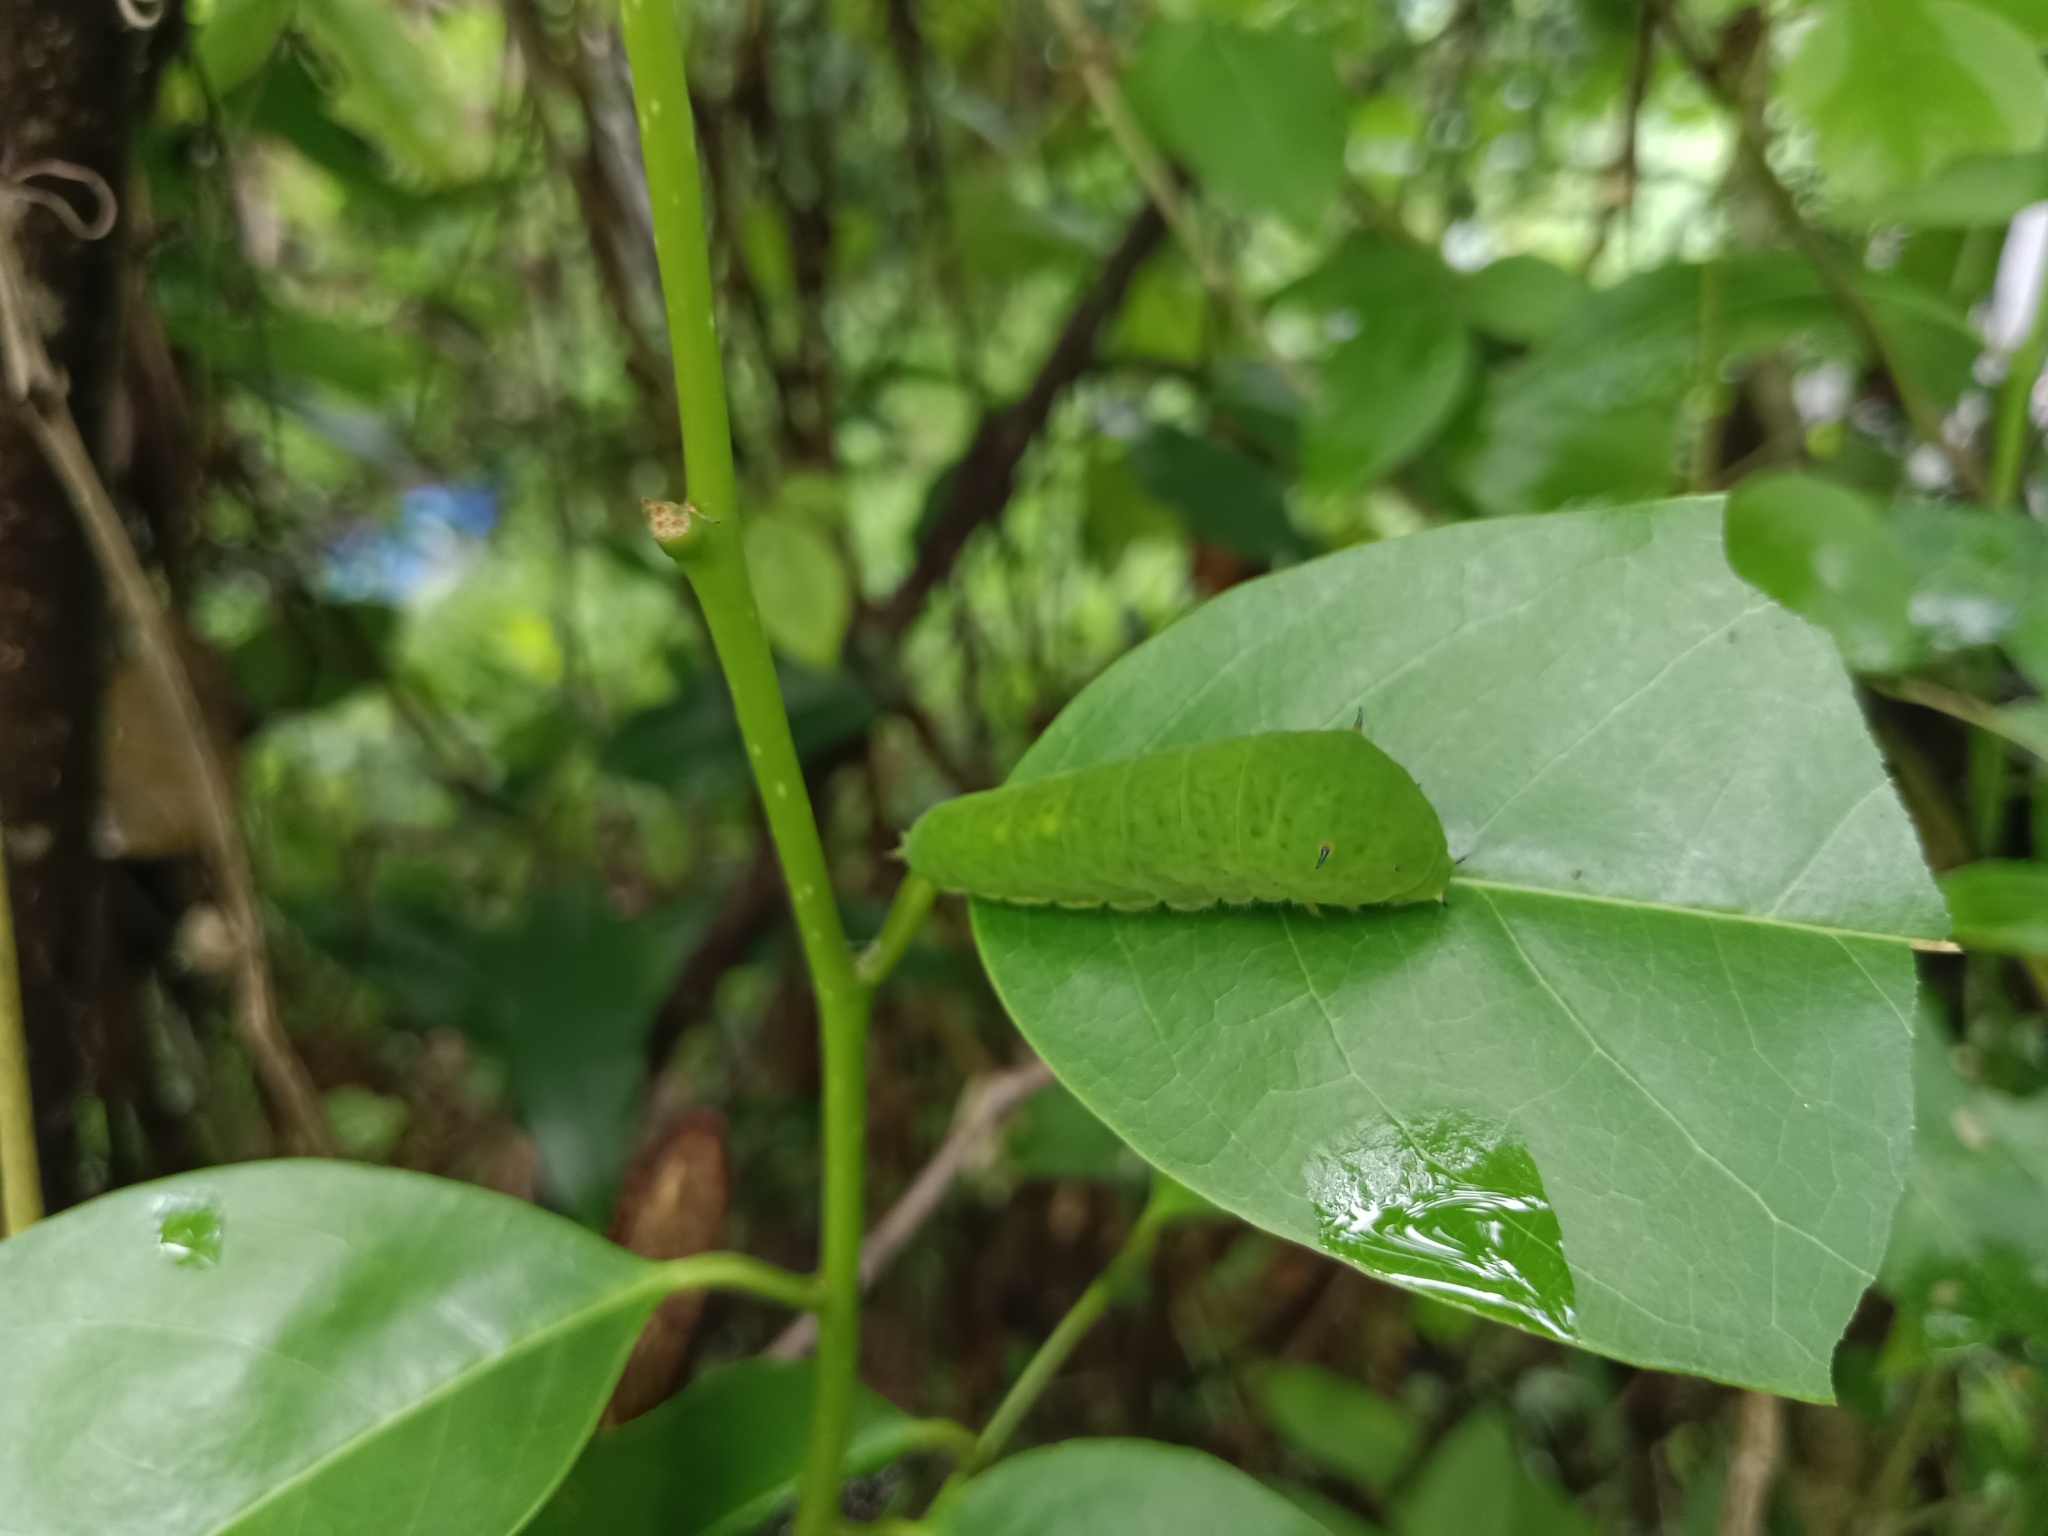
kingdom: Animalia
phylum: Arthropoda
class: Insecta
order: Lepidoptera
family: Papilionidae
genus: Graphium
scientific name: Graphium agamemnon
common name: Tailed jay
